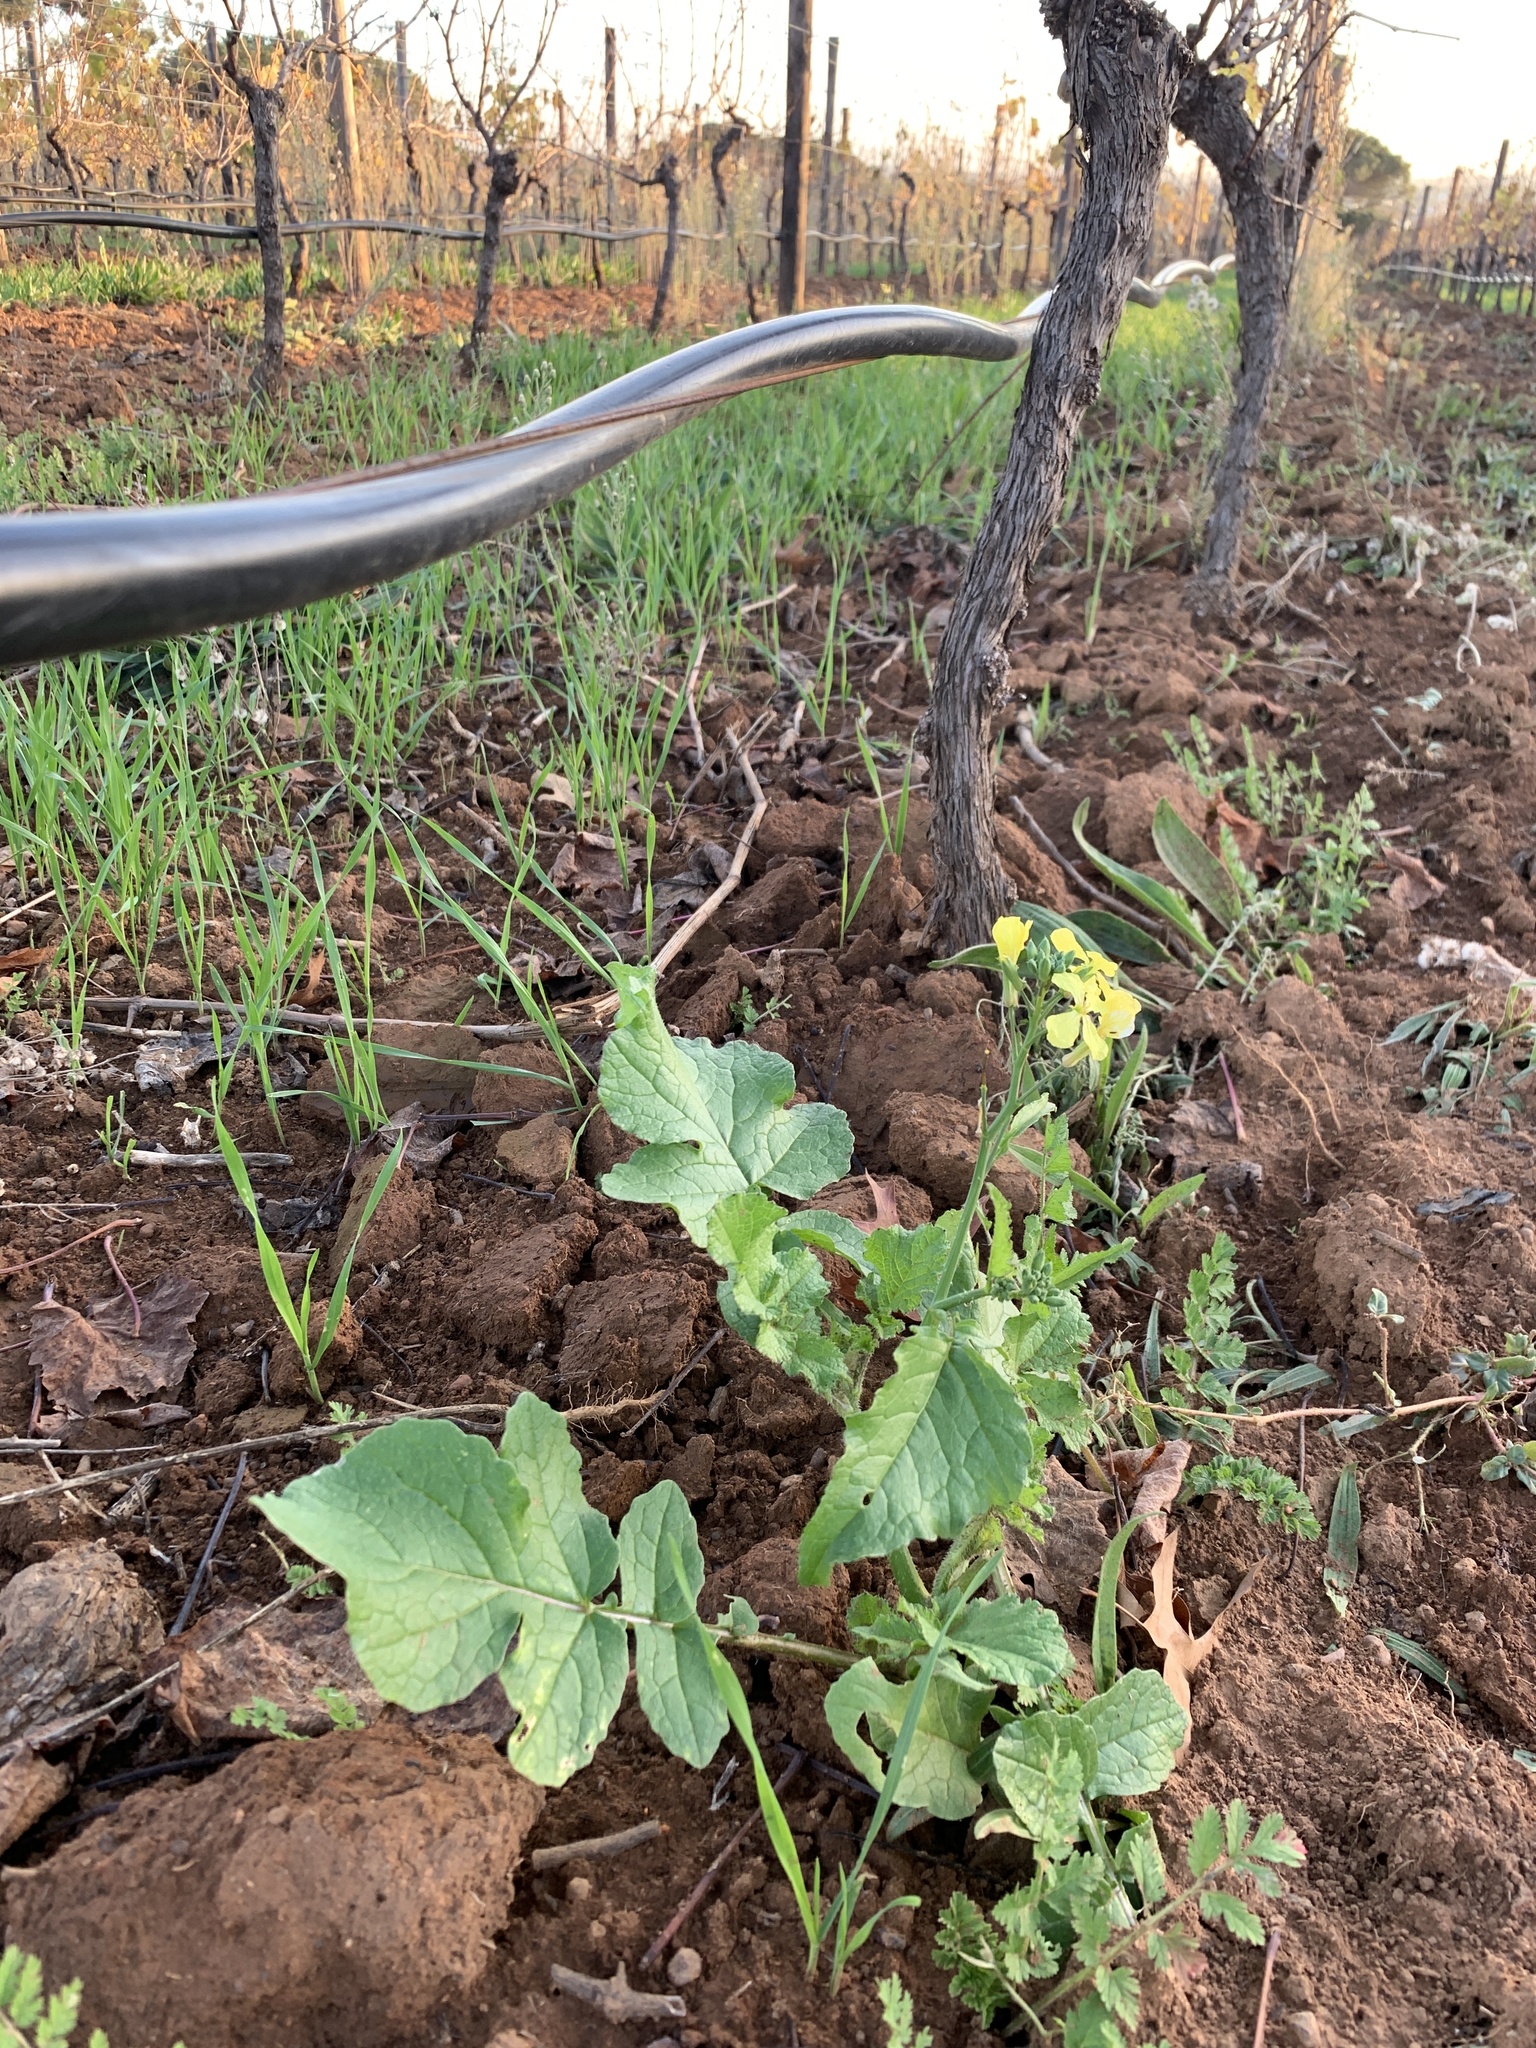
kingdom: Plantae
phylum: Tracheophyta
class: Magnoliopsida
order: Brassicales
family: Brassicaceae
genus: Raphanus
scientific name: Raphanus raphanistrum
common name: Wild radish
